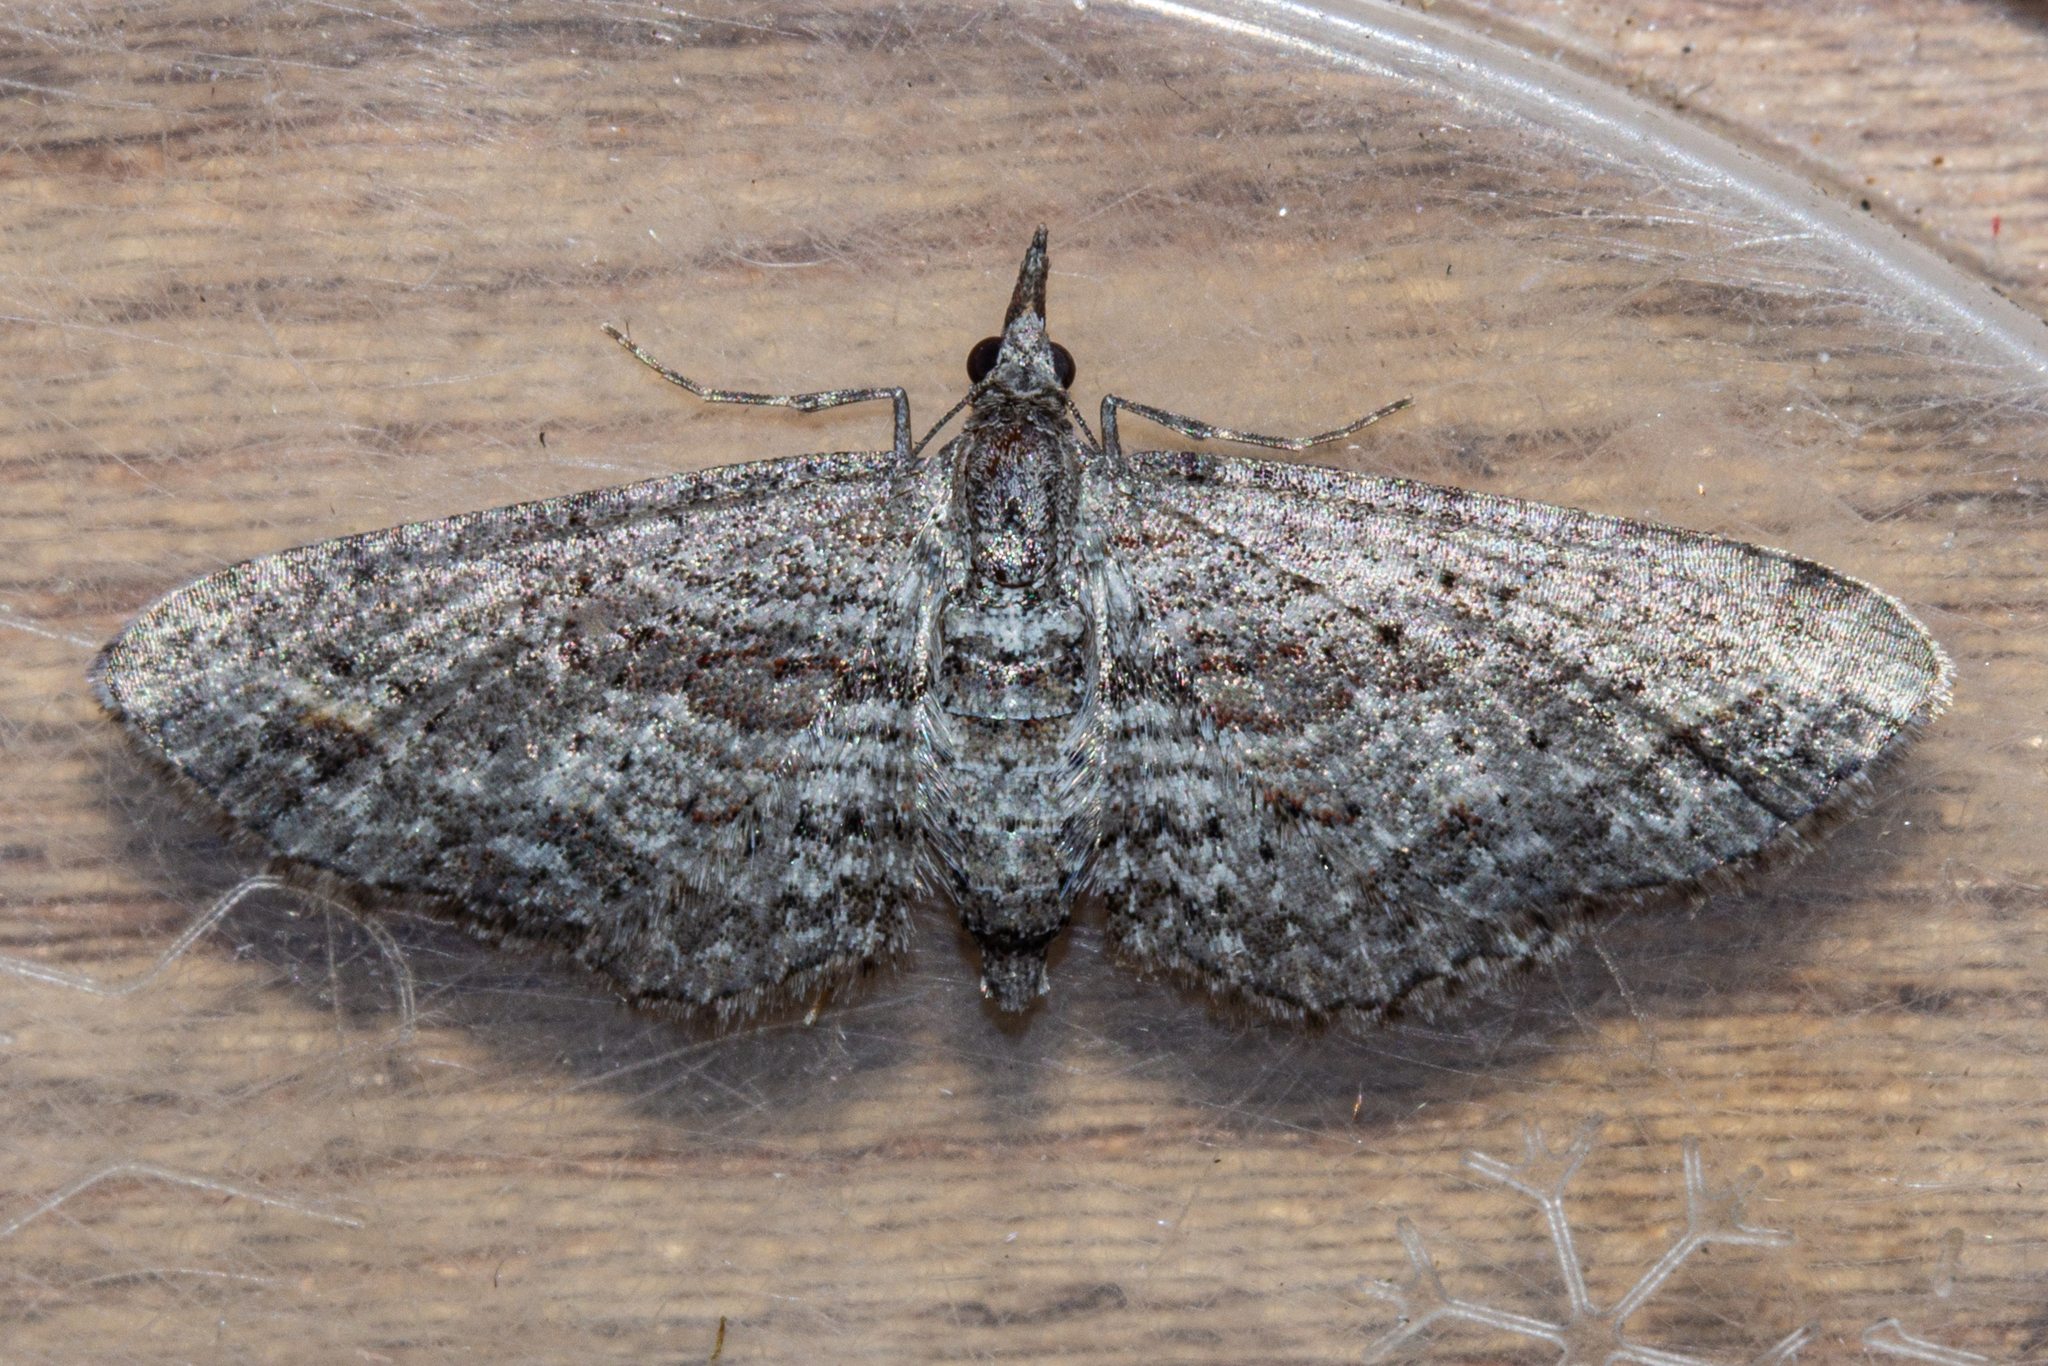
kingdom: Animalia
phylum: Arthropoda
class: Insecta
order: Lepidoptera
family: Geometridae
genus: Pasiphila
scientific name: Pasiphila humilis
